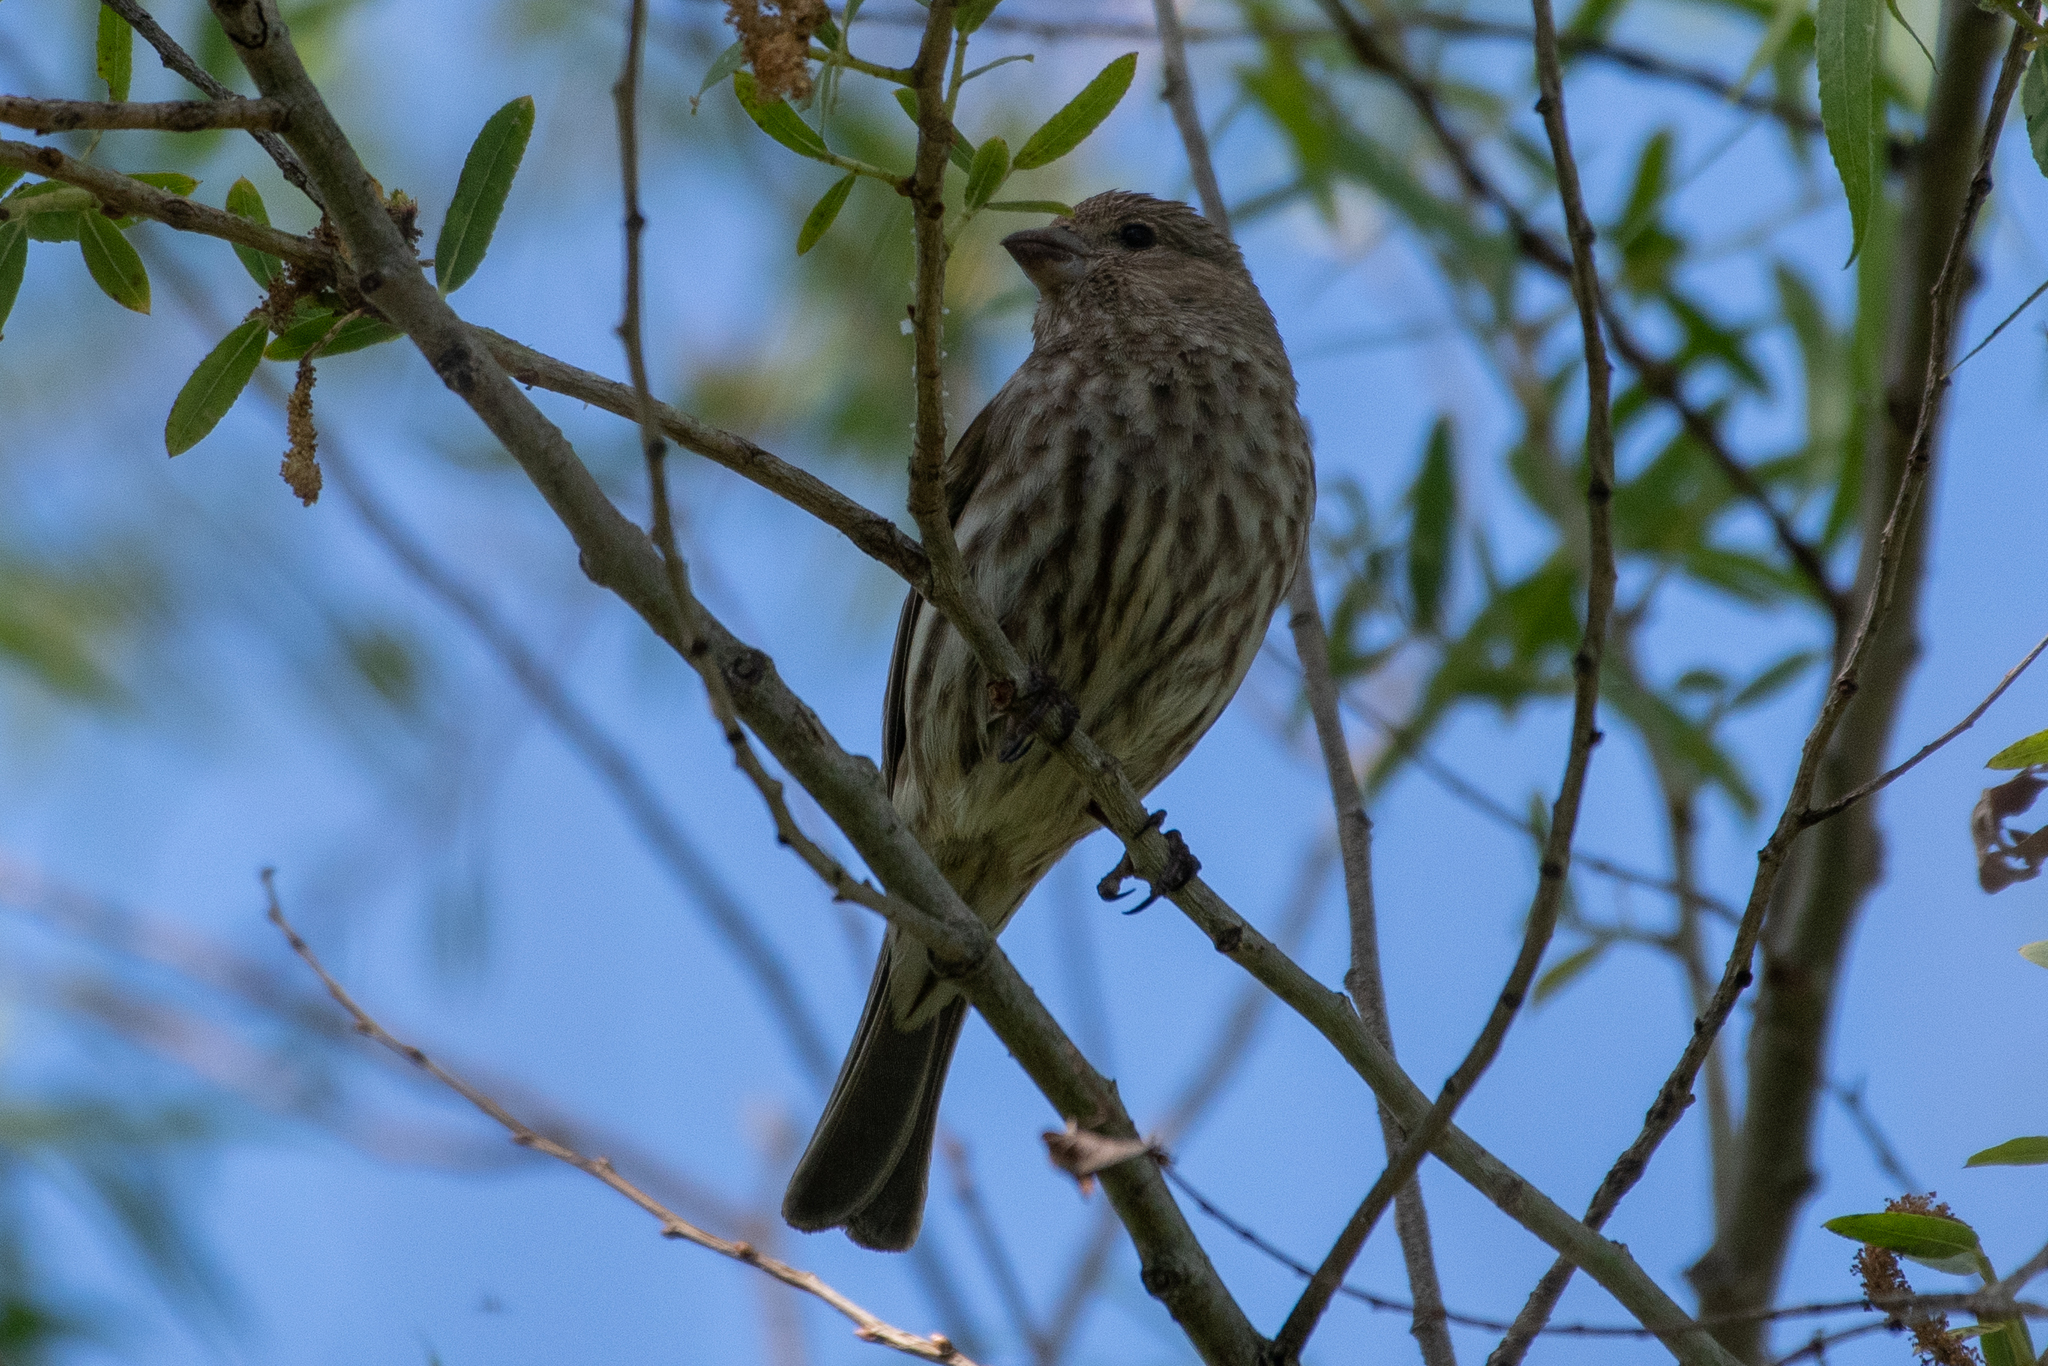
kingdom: Animalia
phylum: Chordata
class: Aves
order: Passeriformes
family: Fringillidae
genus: Haemorhous
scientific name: Haemorhous mexicanus
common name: House finch
